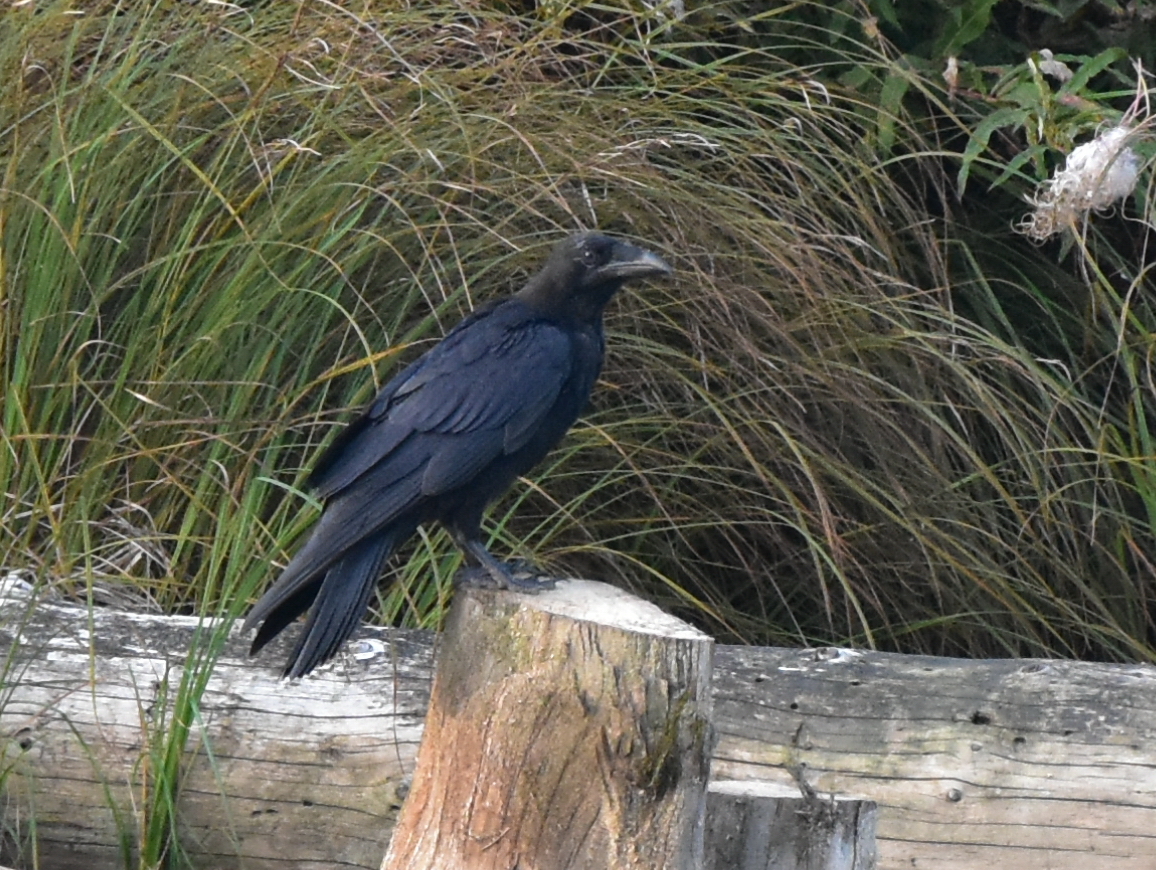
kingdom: Animalia
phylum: Chordata
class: Aves
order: Passeriformes
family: Corvidae
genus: Corvus
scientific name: Corvus corax
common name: Common raven
